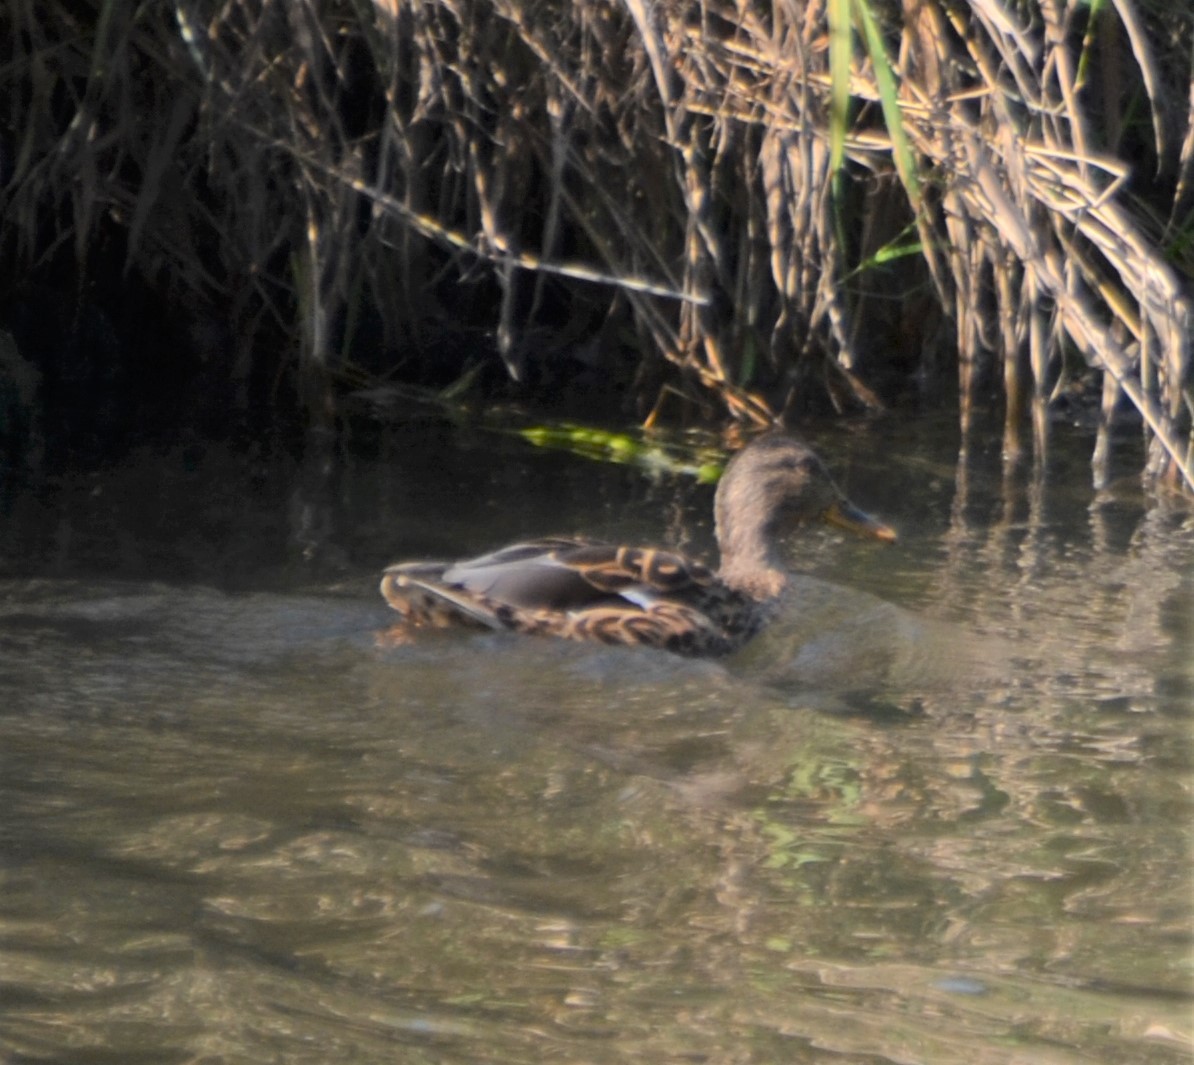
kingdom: Animalia
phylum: Chordata
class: Aves
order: Anseriformes
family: Anatidae
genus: Anas
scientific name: Anas platyrhynchos
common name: Mallard
